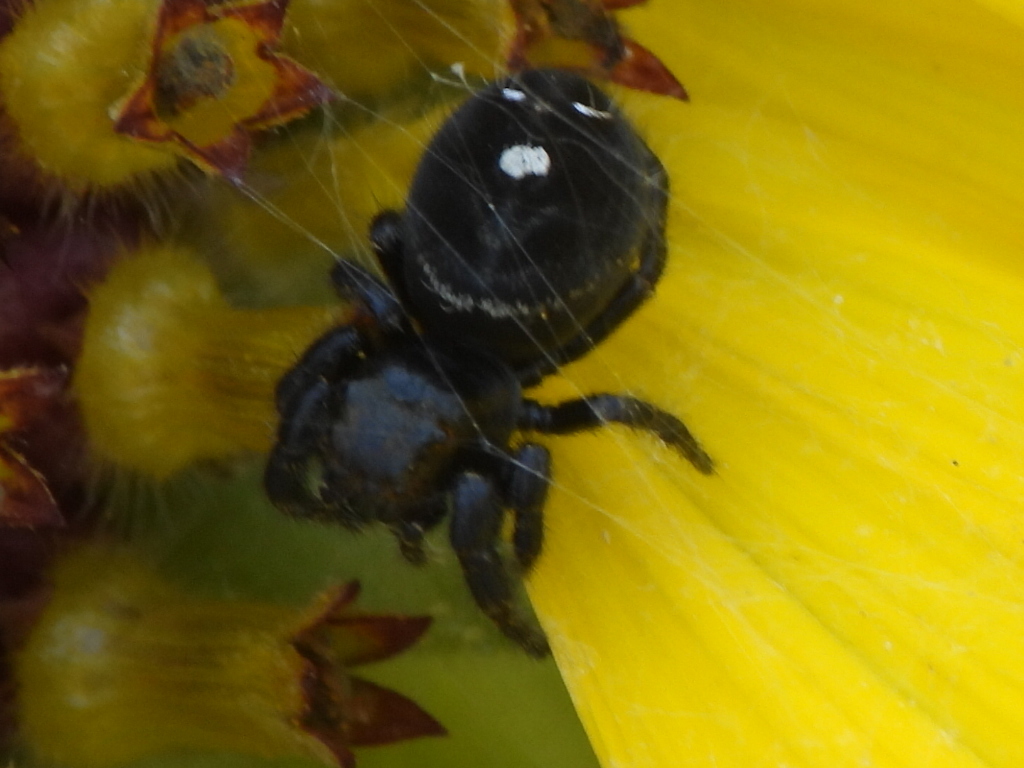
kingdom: Animalia
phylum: Arthropoda
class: Arachnida
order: Araneae
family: Salticidae
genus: Phidippus
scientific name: Phidippus audax
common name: Bold jumper
